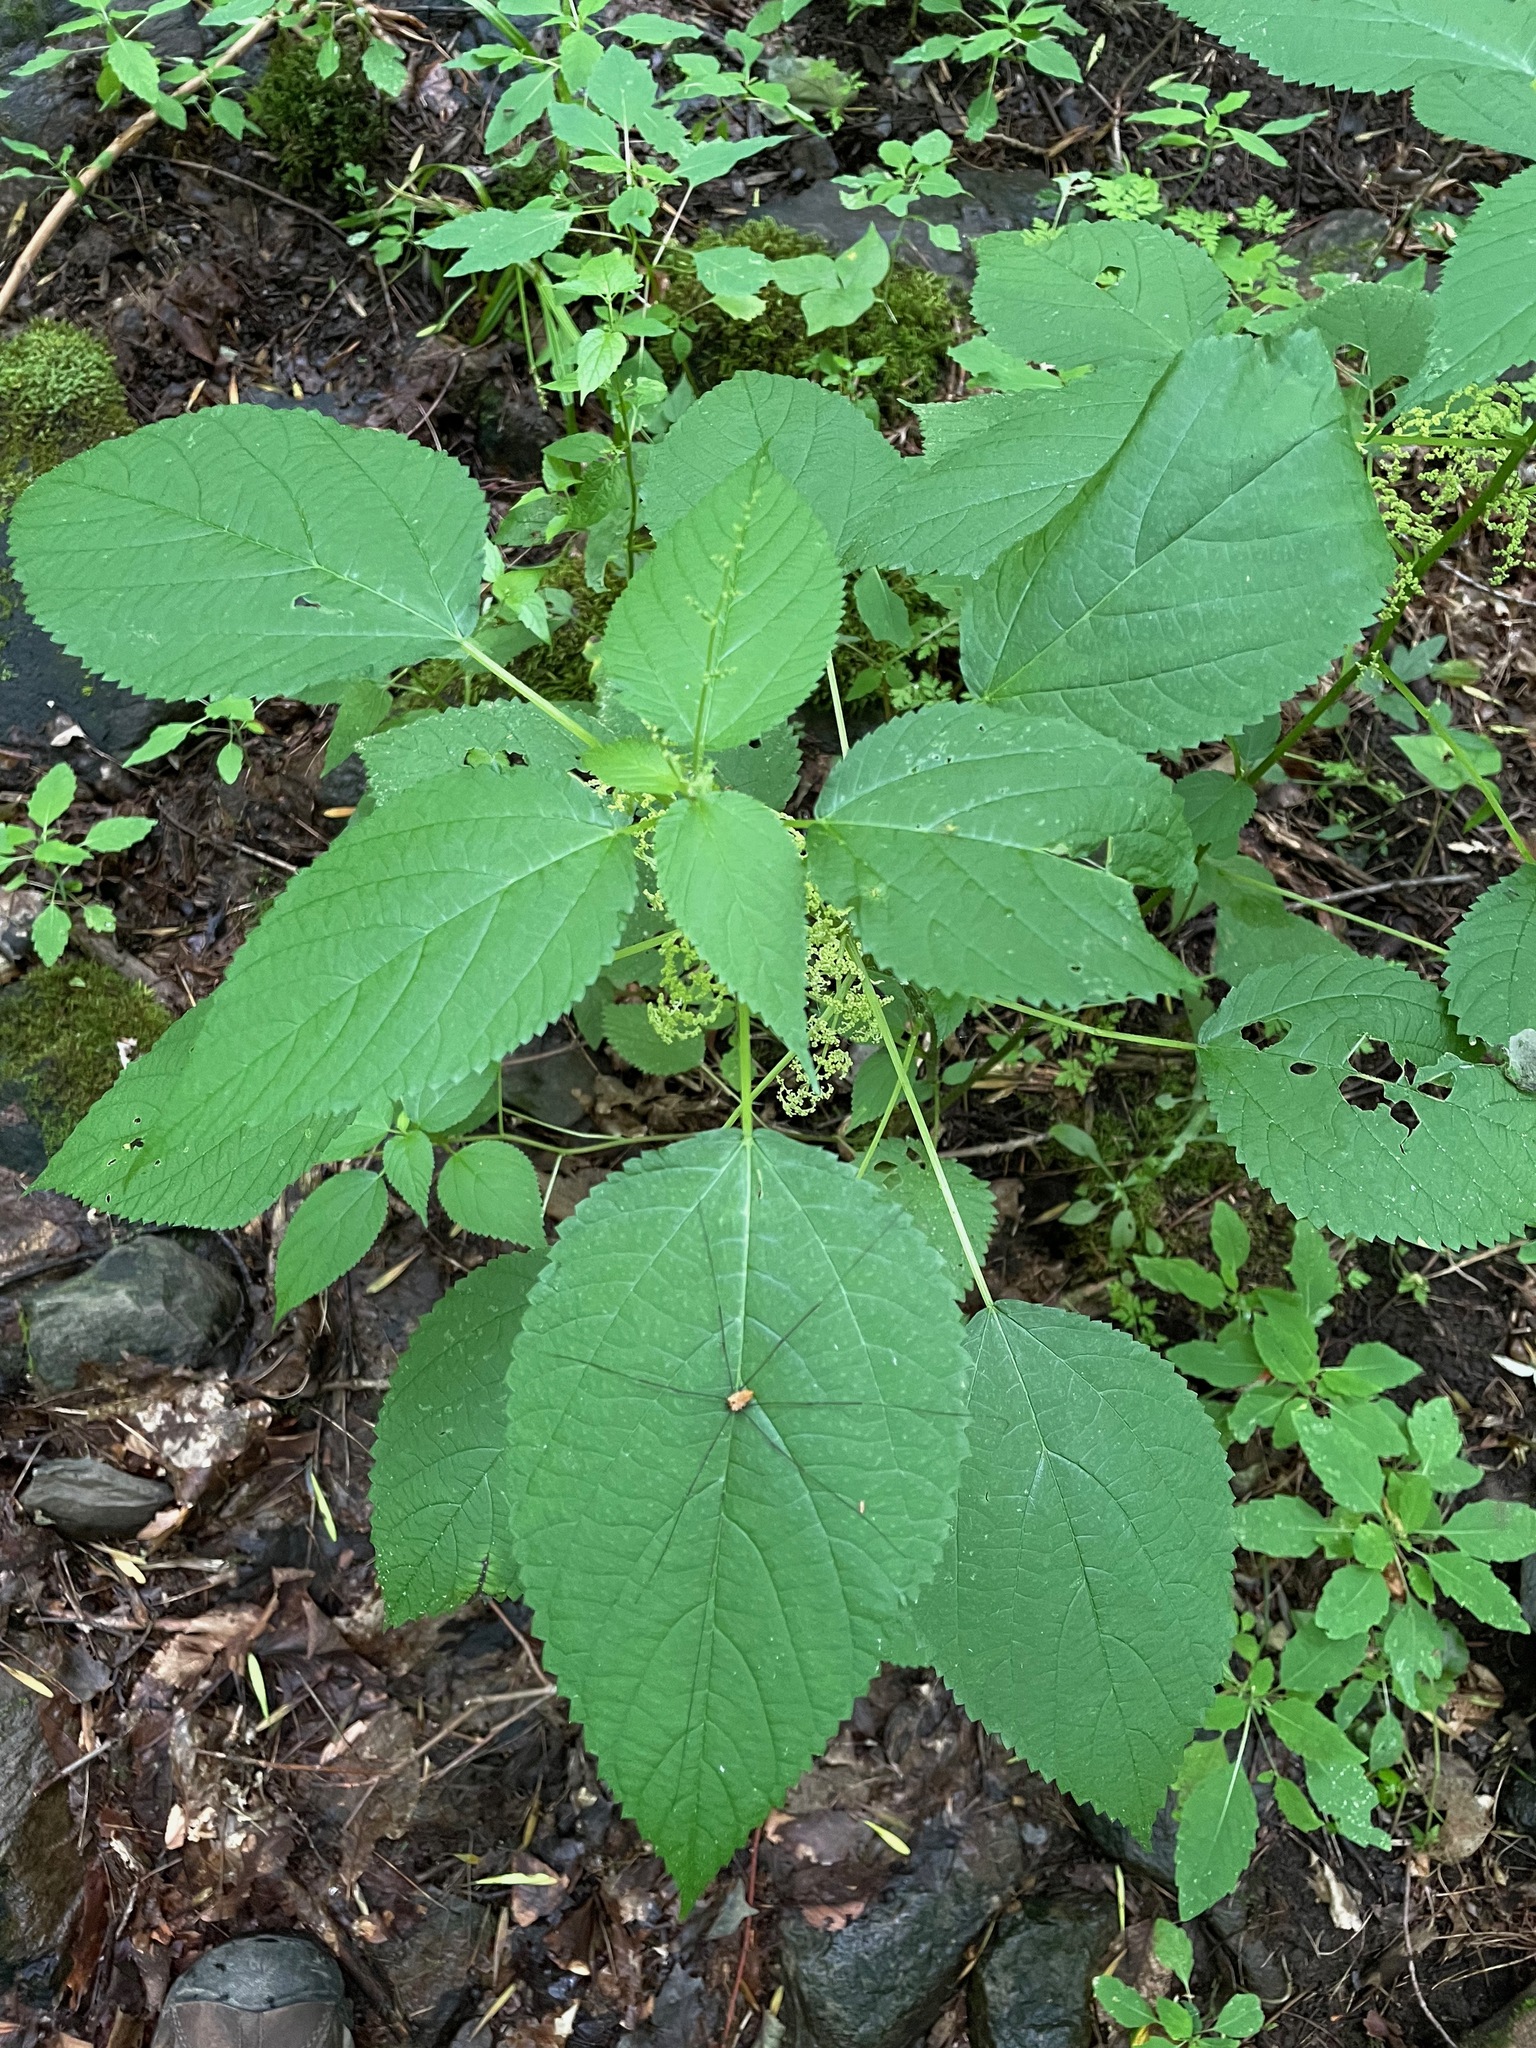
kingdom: Plantae
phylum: Tracheophyta
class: Magnoliopsida
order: Rosales
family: Urticaceae
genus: Laportea
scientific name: Laportea canadensis
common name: Canada nettle
